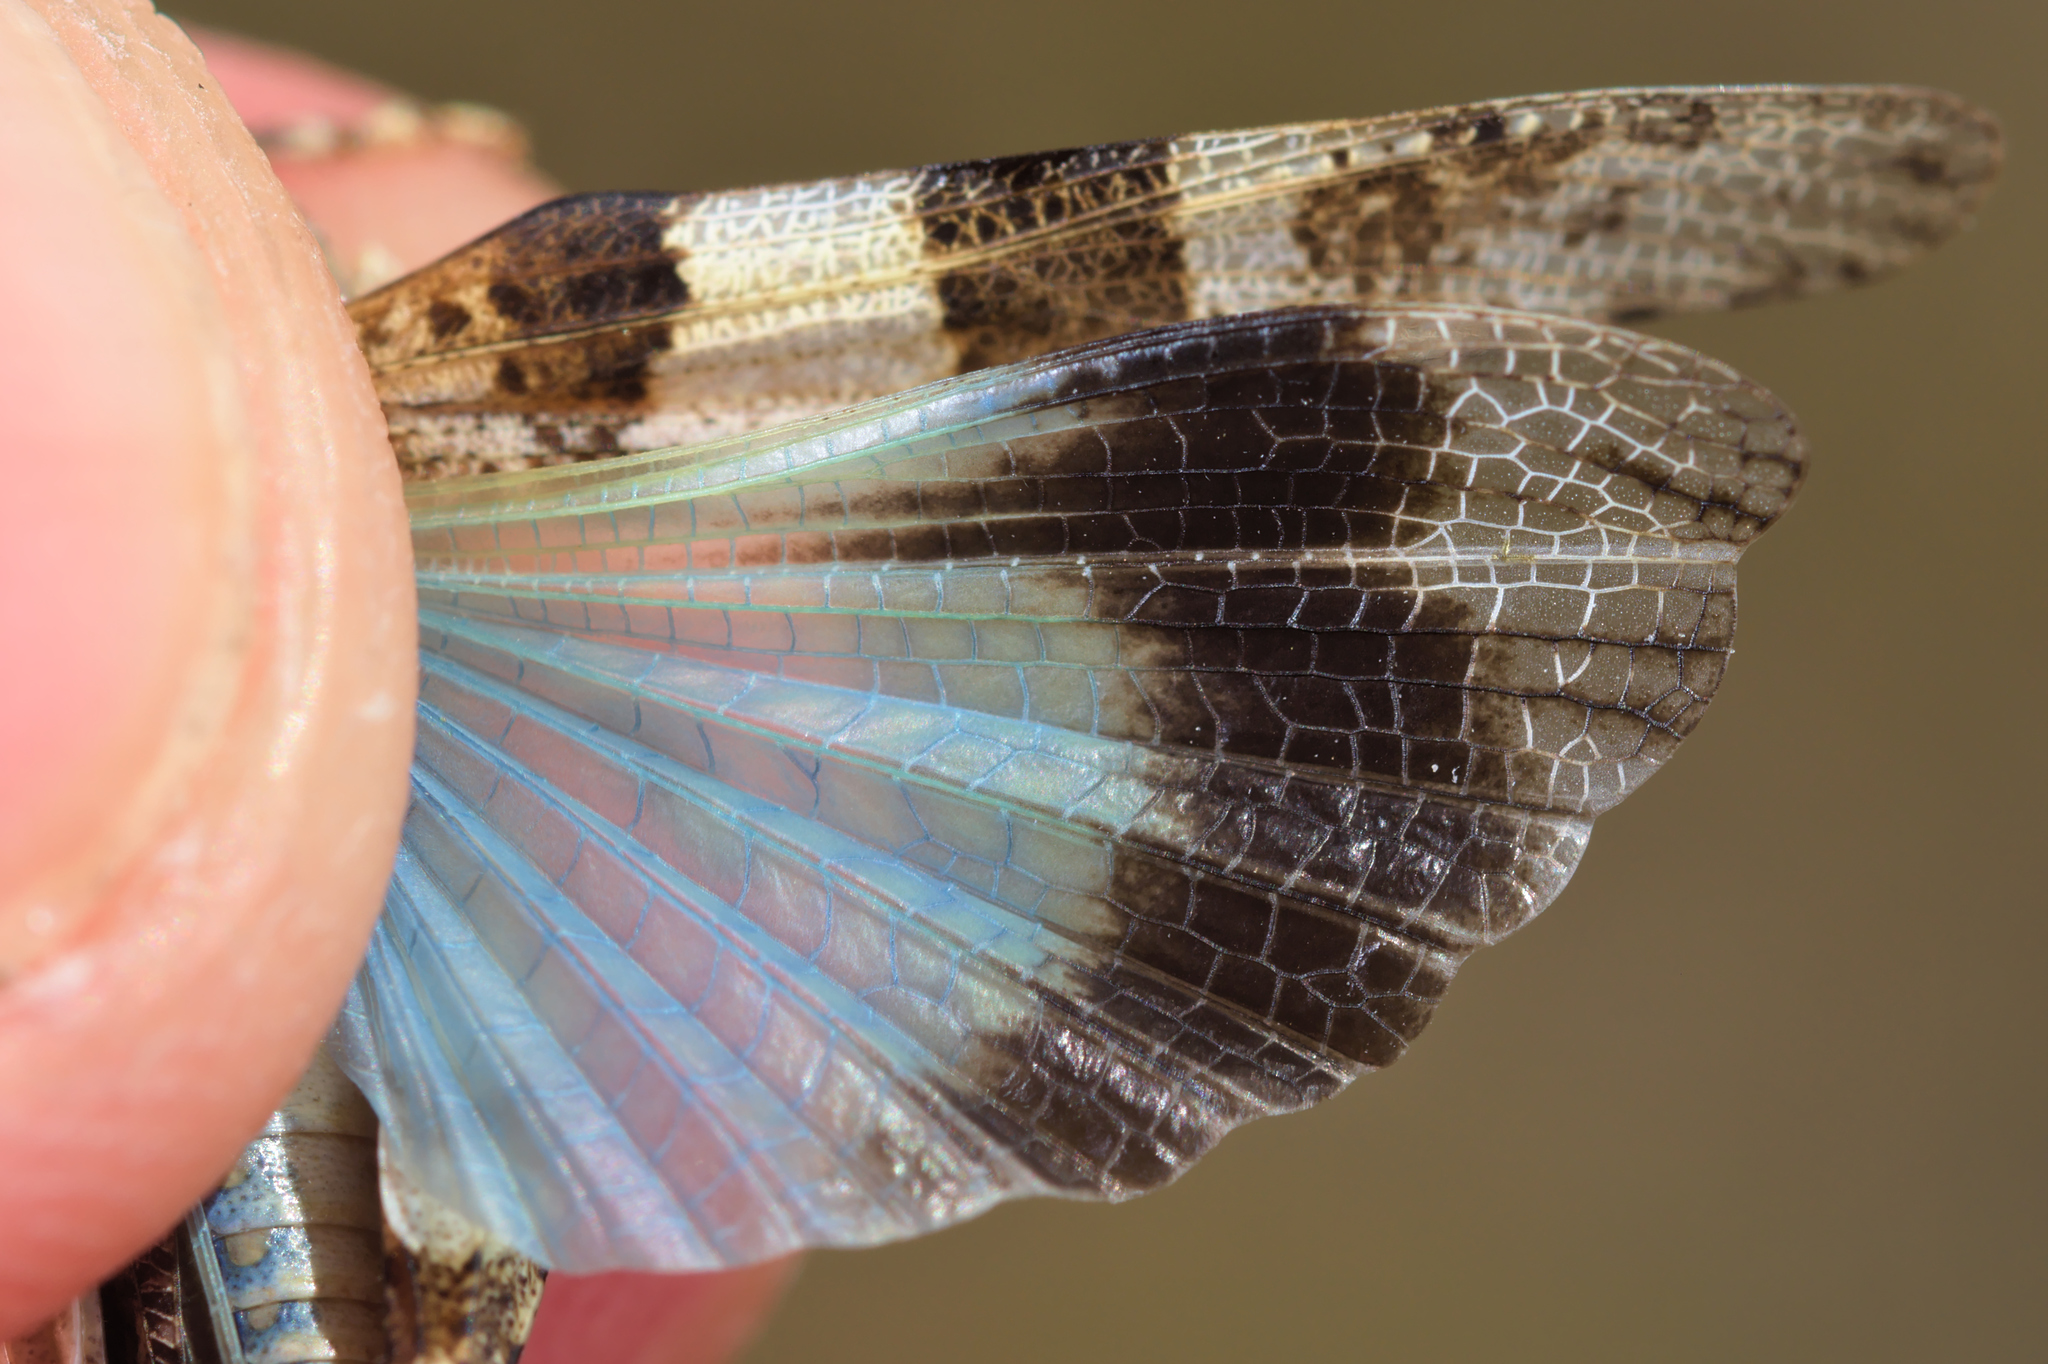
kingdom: Animalia
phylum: Arthropoda
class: Insecta
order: Orthoptera
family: Acrididae
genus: Oedipoda
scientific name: Oedipoda caerulescens
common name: Blue-winged grasshopper
